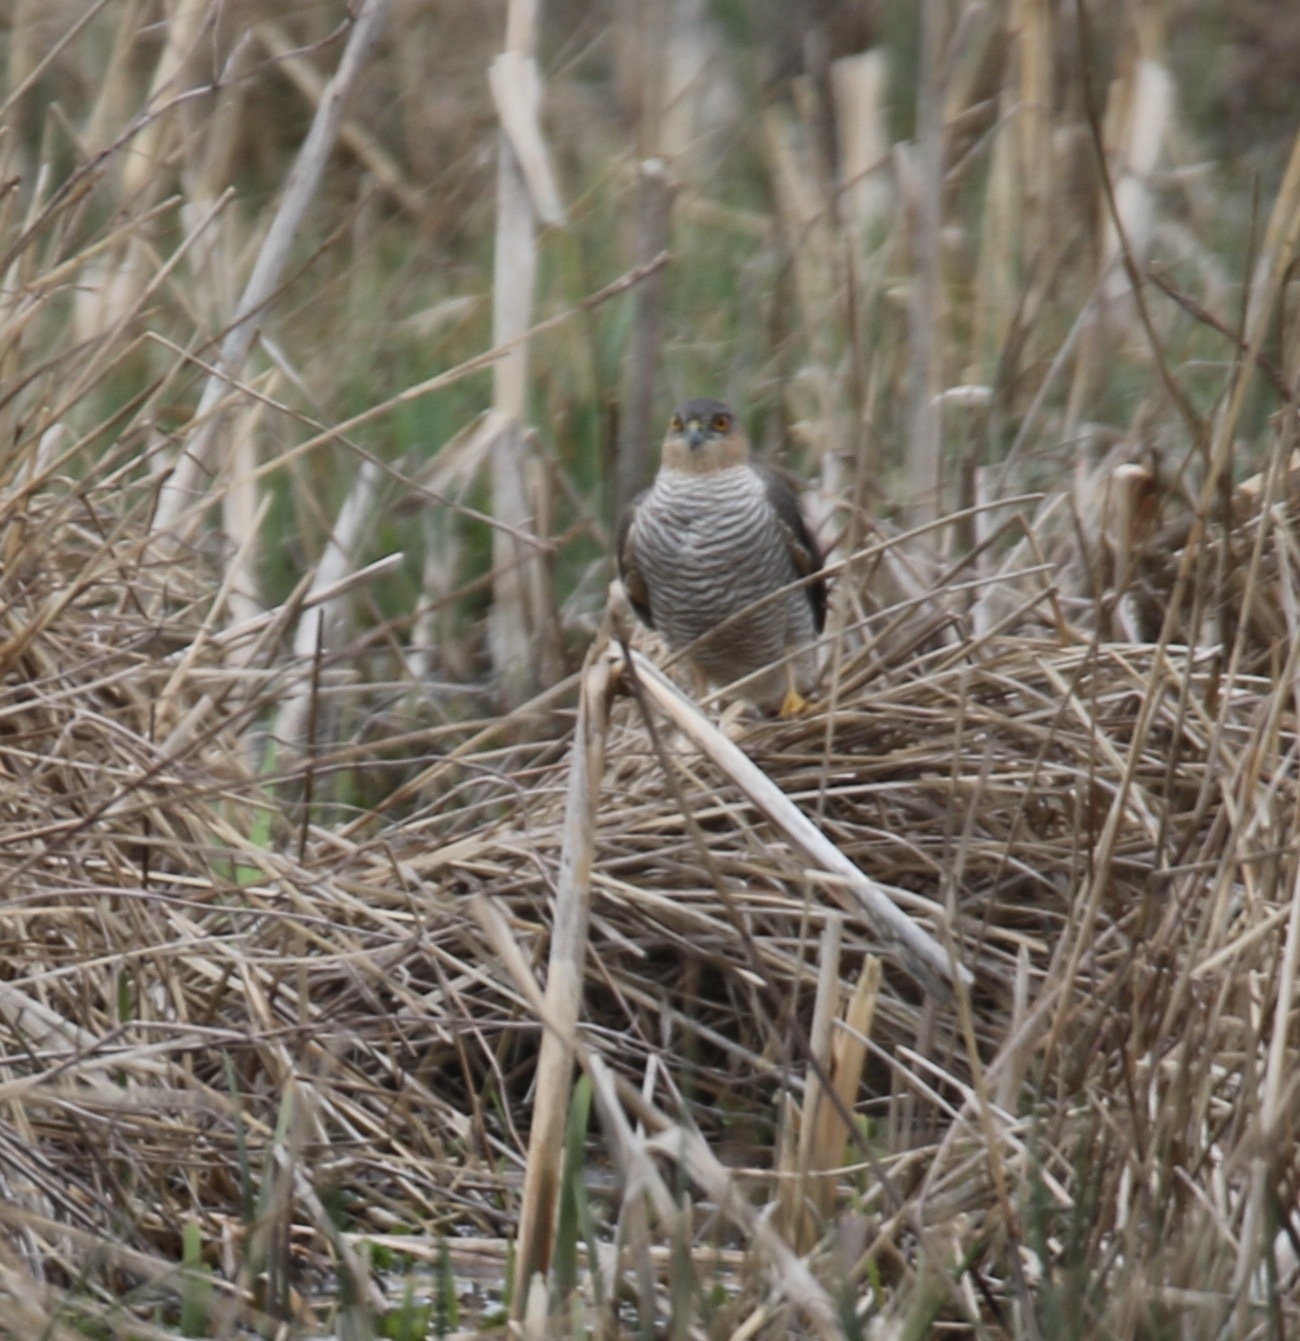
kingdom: Animalia
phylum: Chordata
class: Aves
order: Accipitriformes
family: Accipitridae
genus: Accipiter
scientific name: Accipiter nisus
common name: Eurasian sparrowhawk
